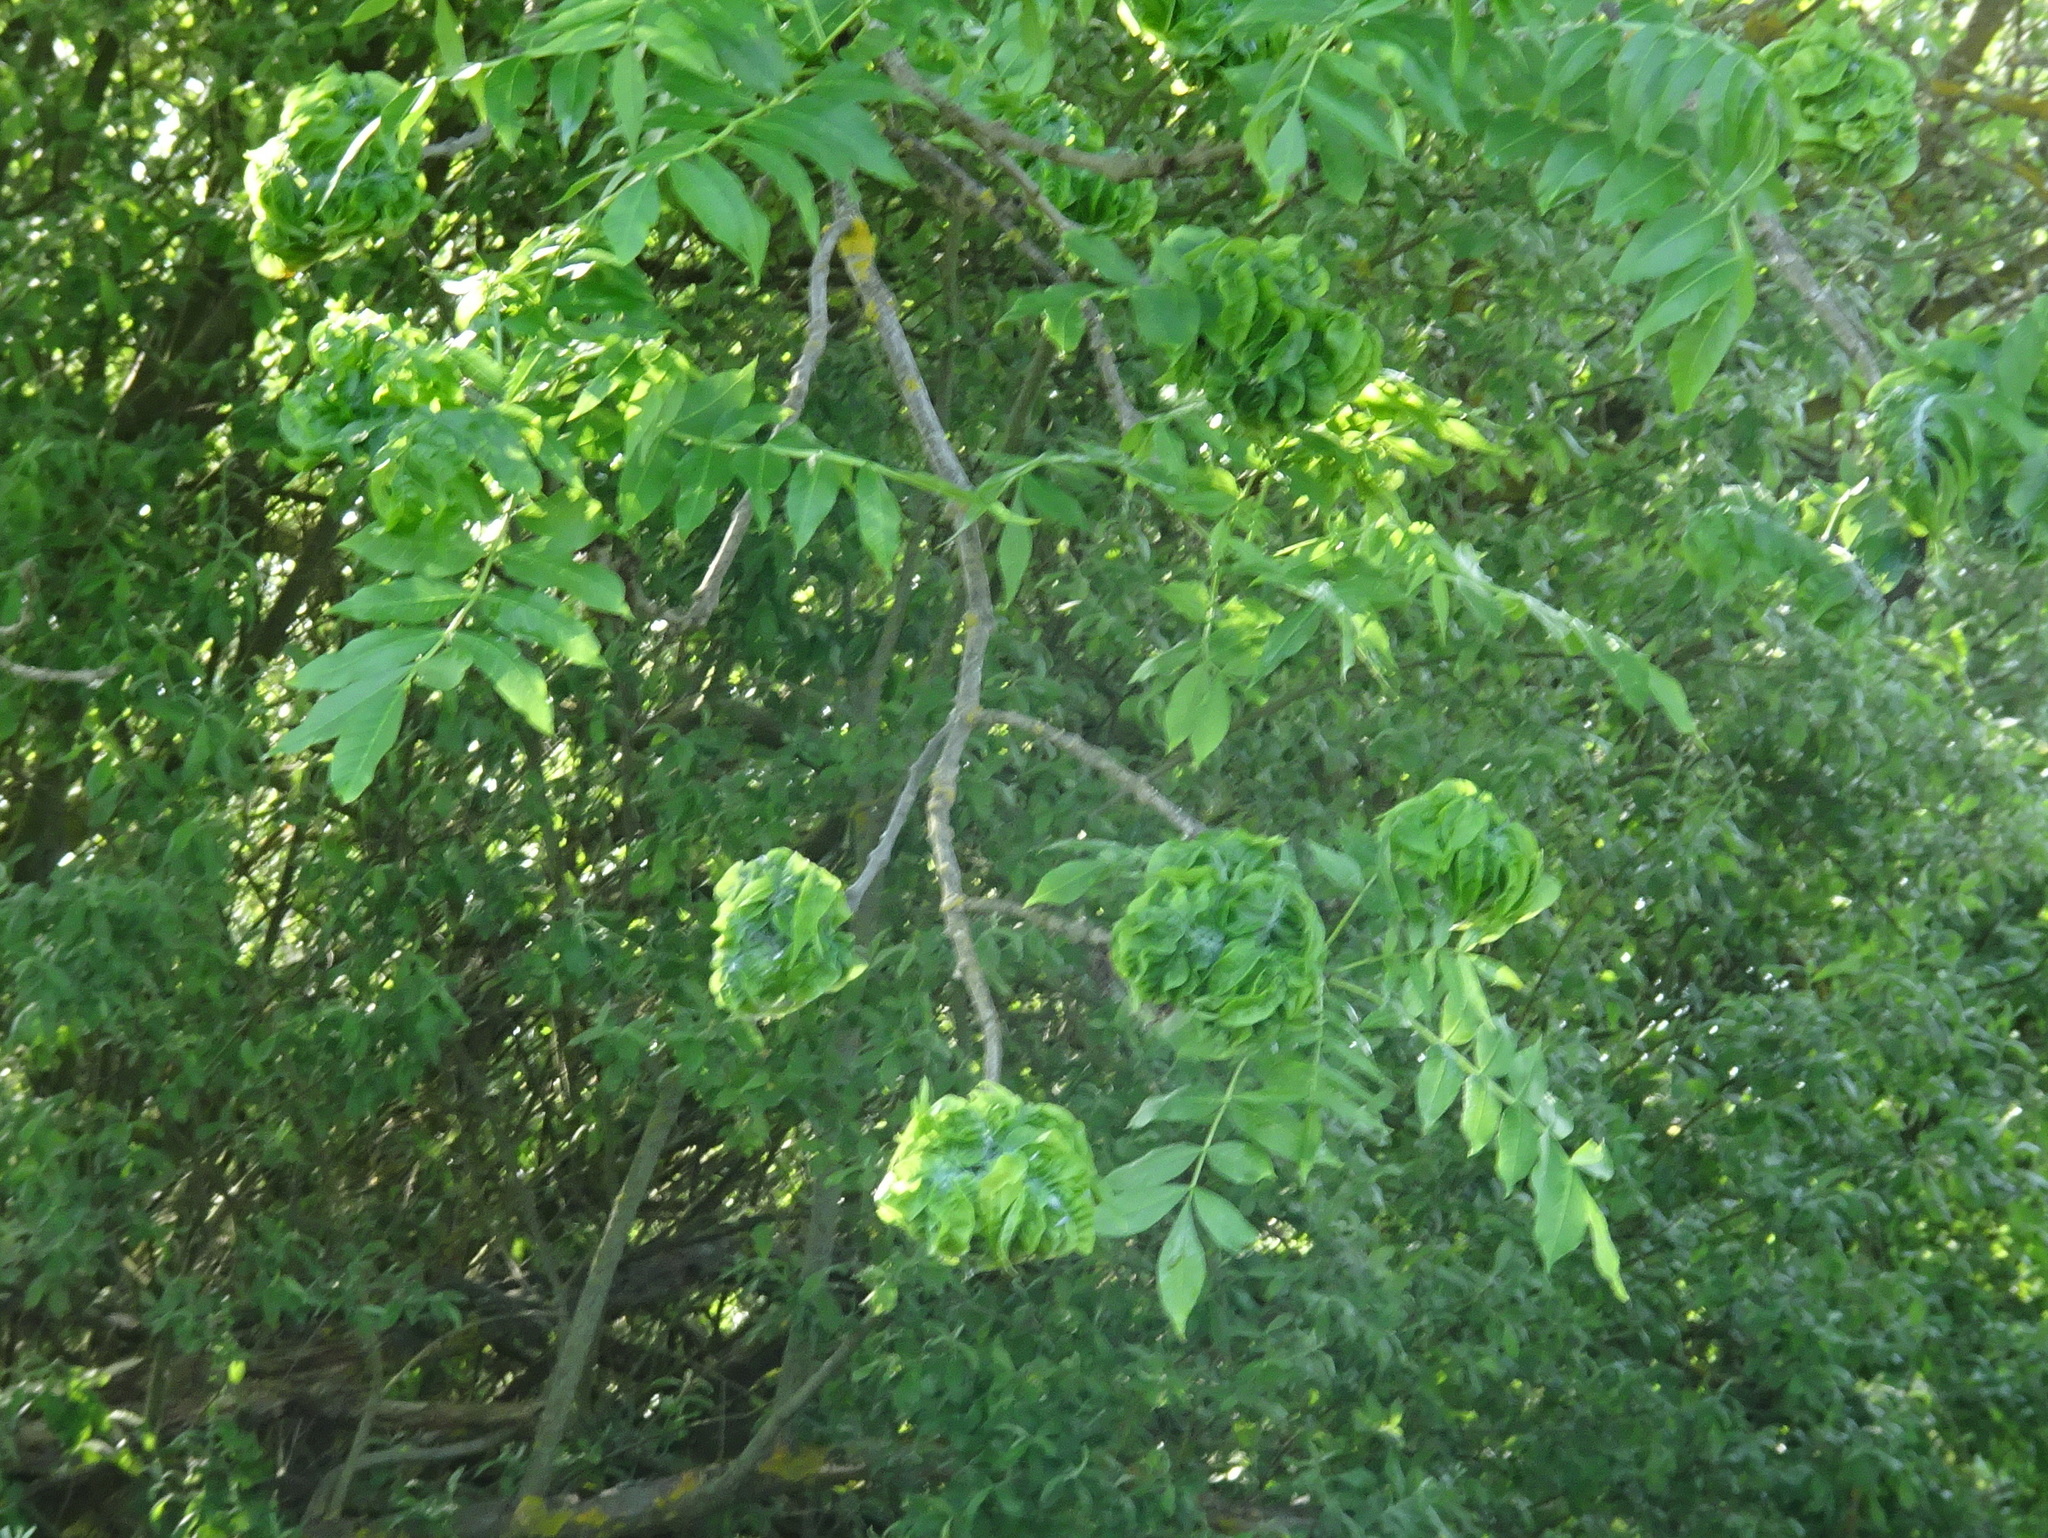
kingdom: Plantae
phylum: Tracheophyta
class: Magnoliopsida
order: Lamiales
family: Oleaceae
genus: Fraxinus
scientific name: Fraxinus excelsior
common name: European ash
